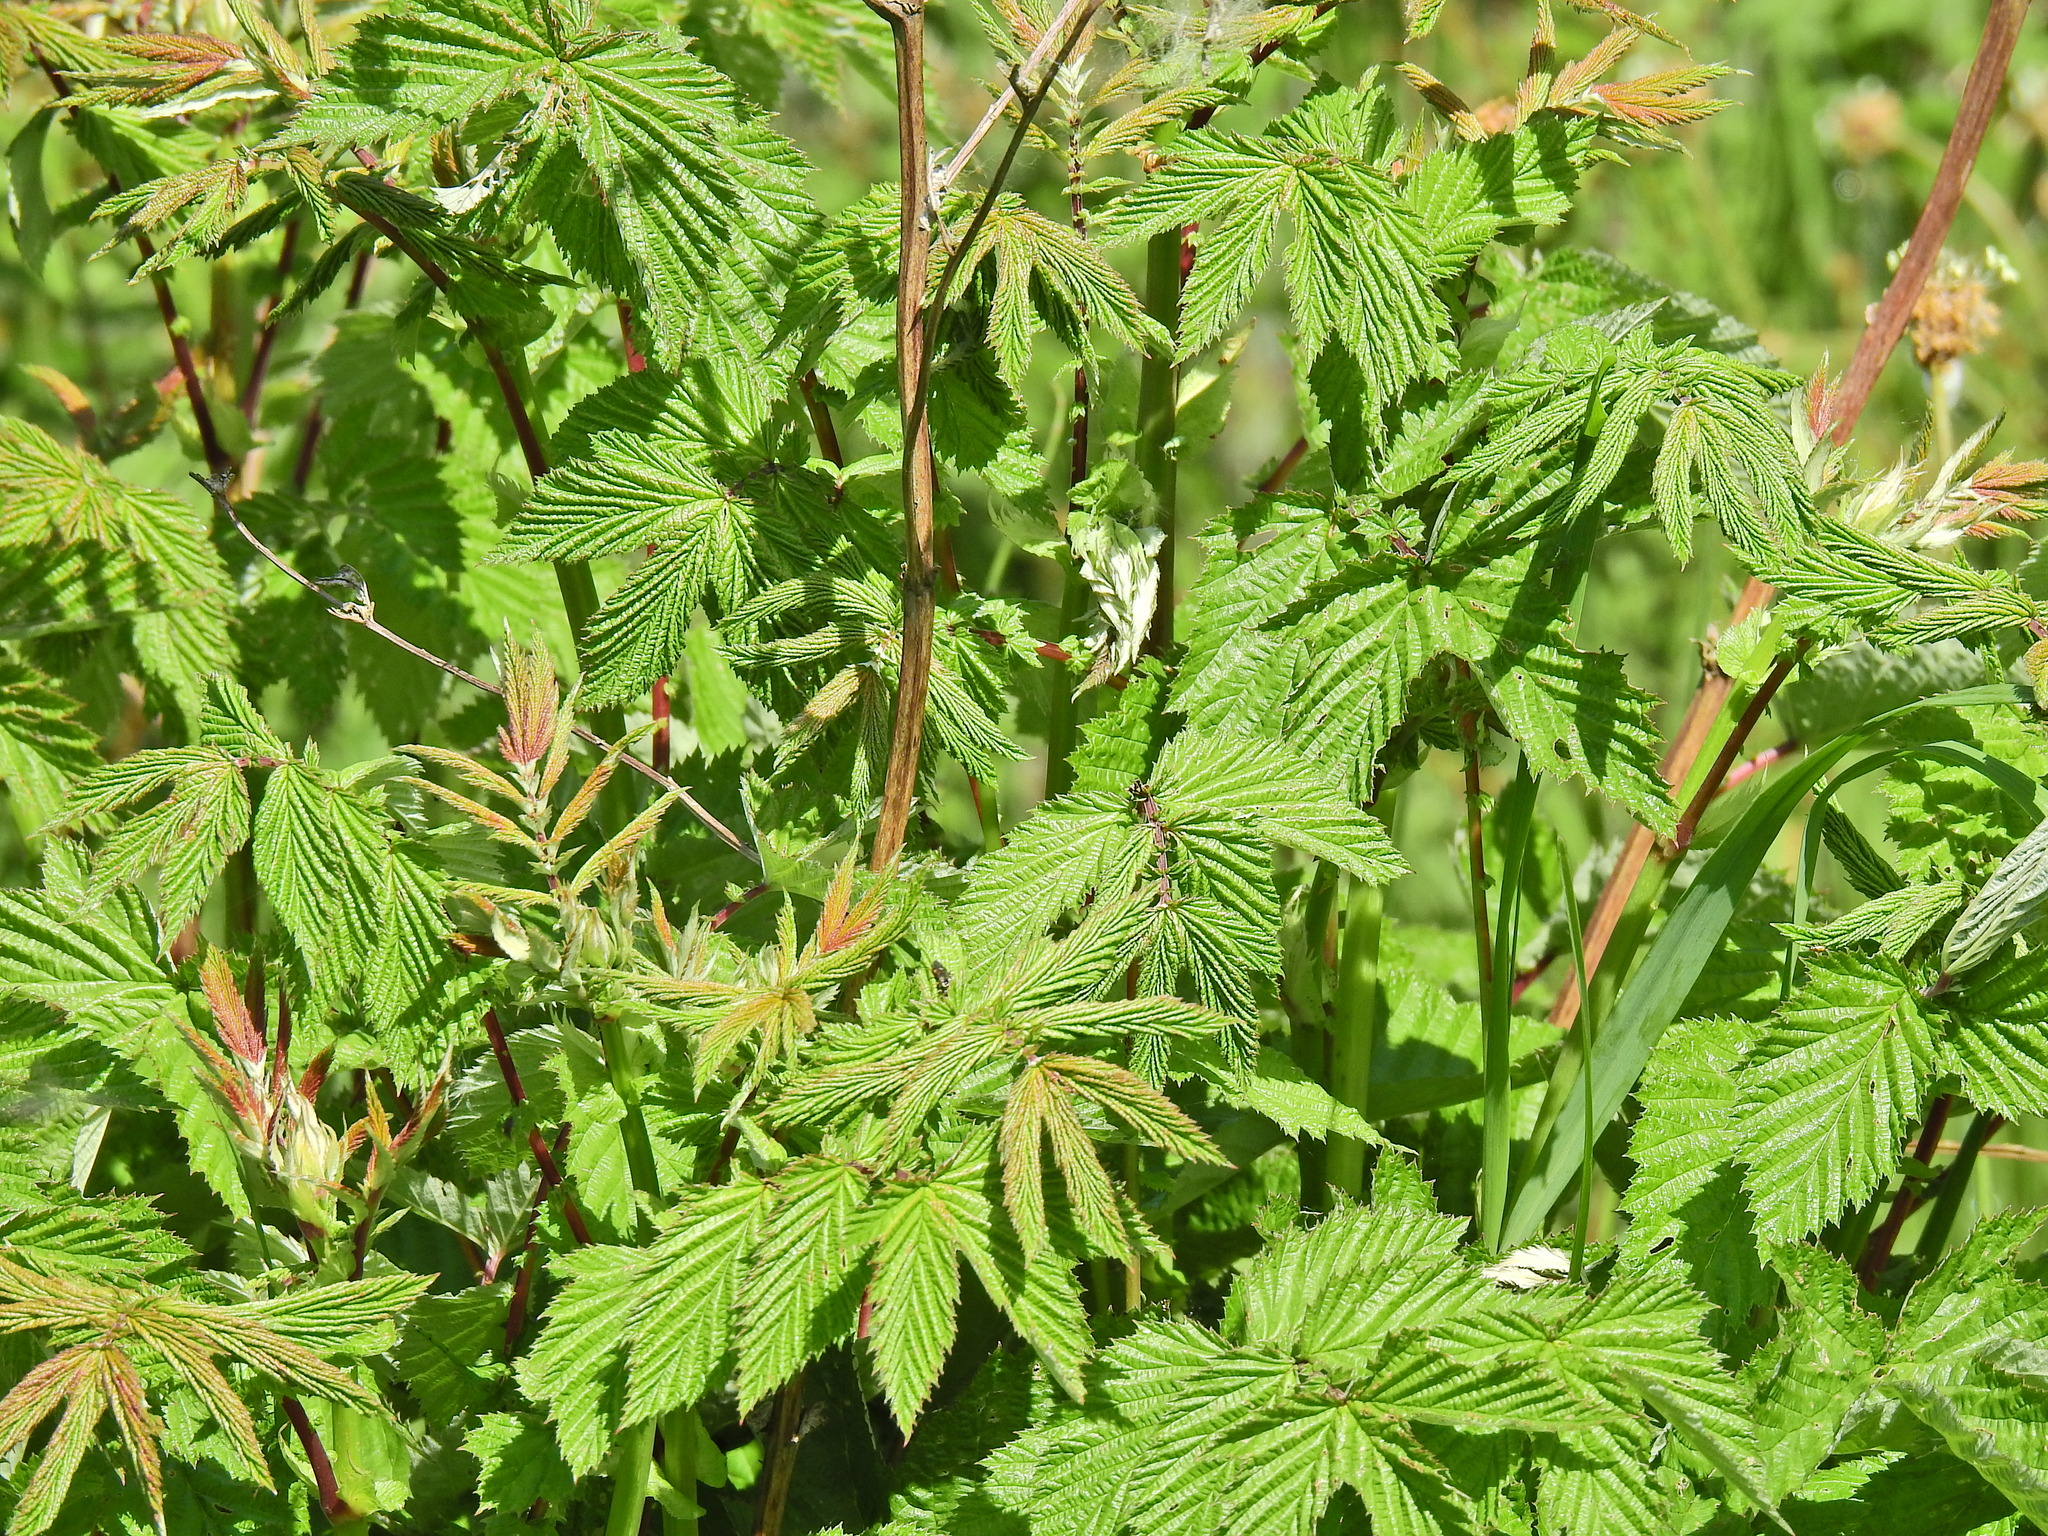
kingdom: Plantae
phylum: Tracheophyta
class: Magnoliopsida
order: Rosales
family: Rosaceae
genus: Filipendula
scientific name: Filipendula ulmaria
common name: Meadowsweet
